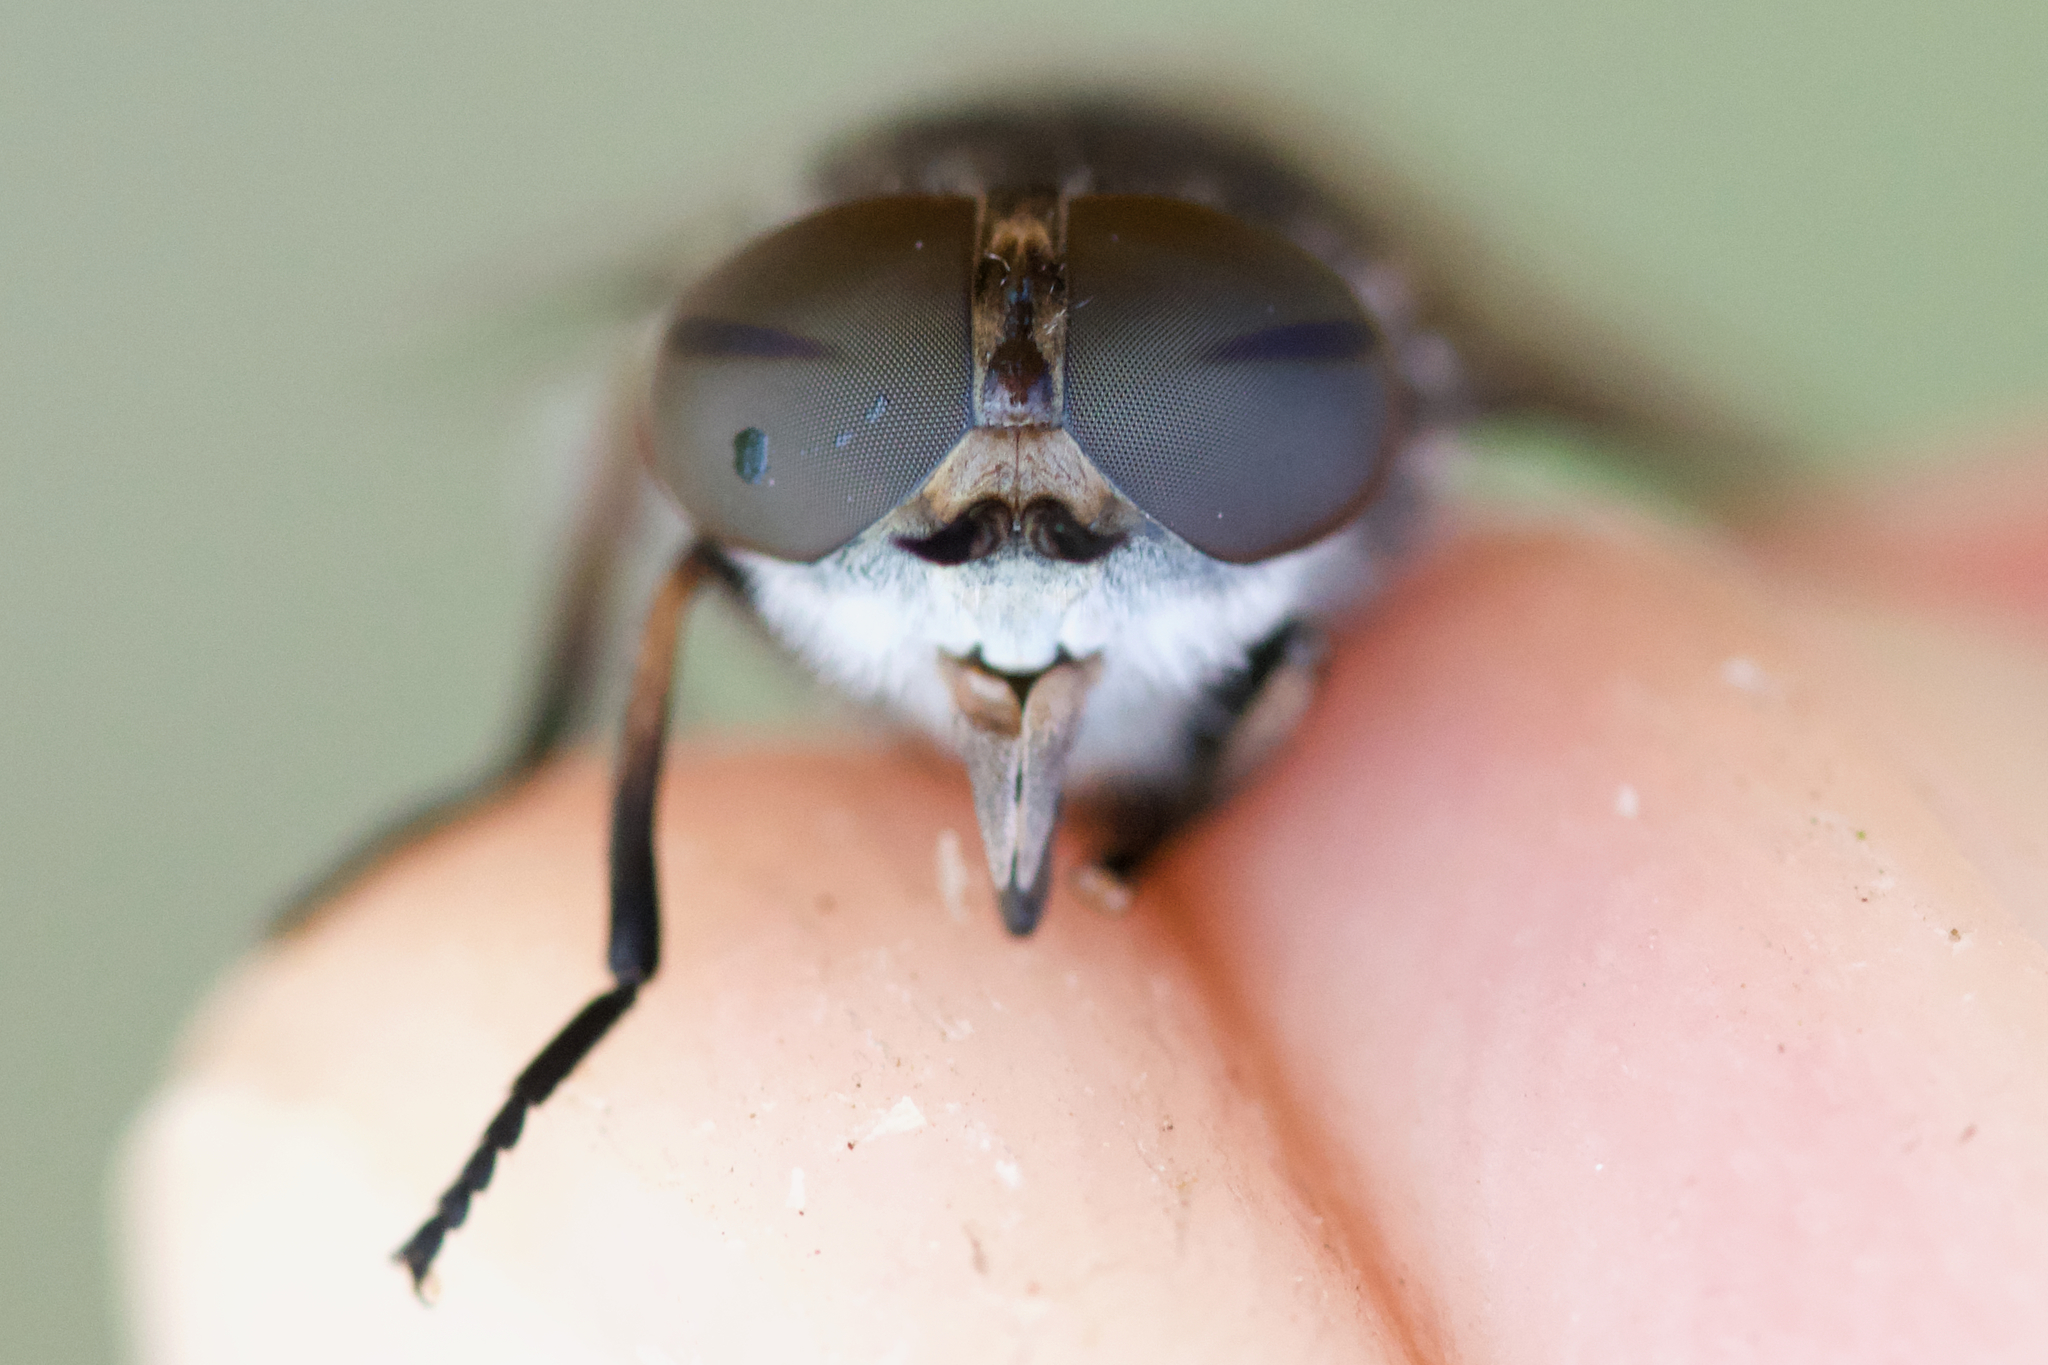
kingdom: Animalia
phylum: Arthropoda
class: Insecta
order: Diptera
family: Tabanidae
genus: Tabanus
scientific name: Tabanus marginalis
